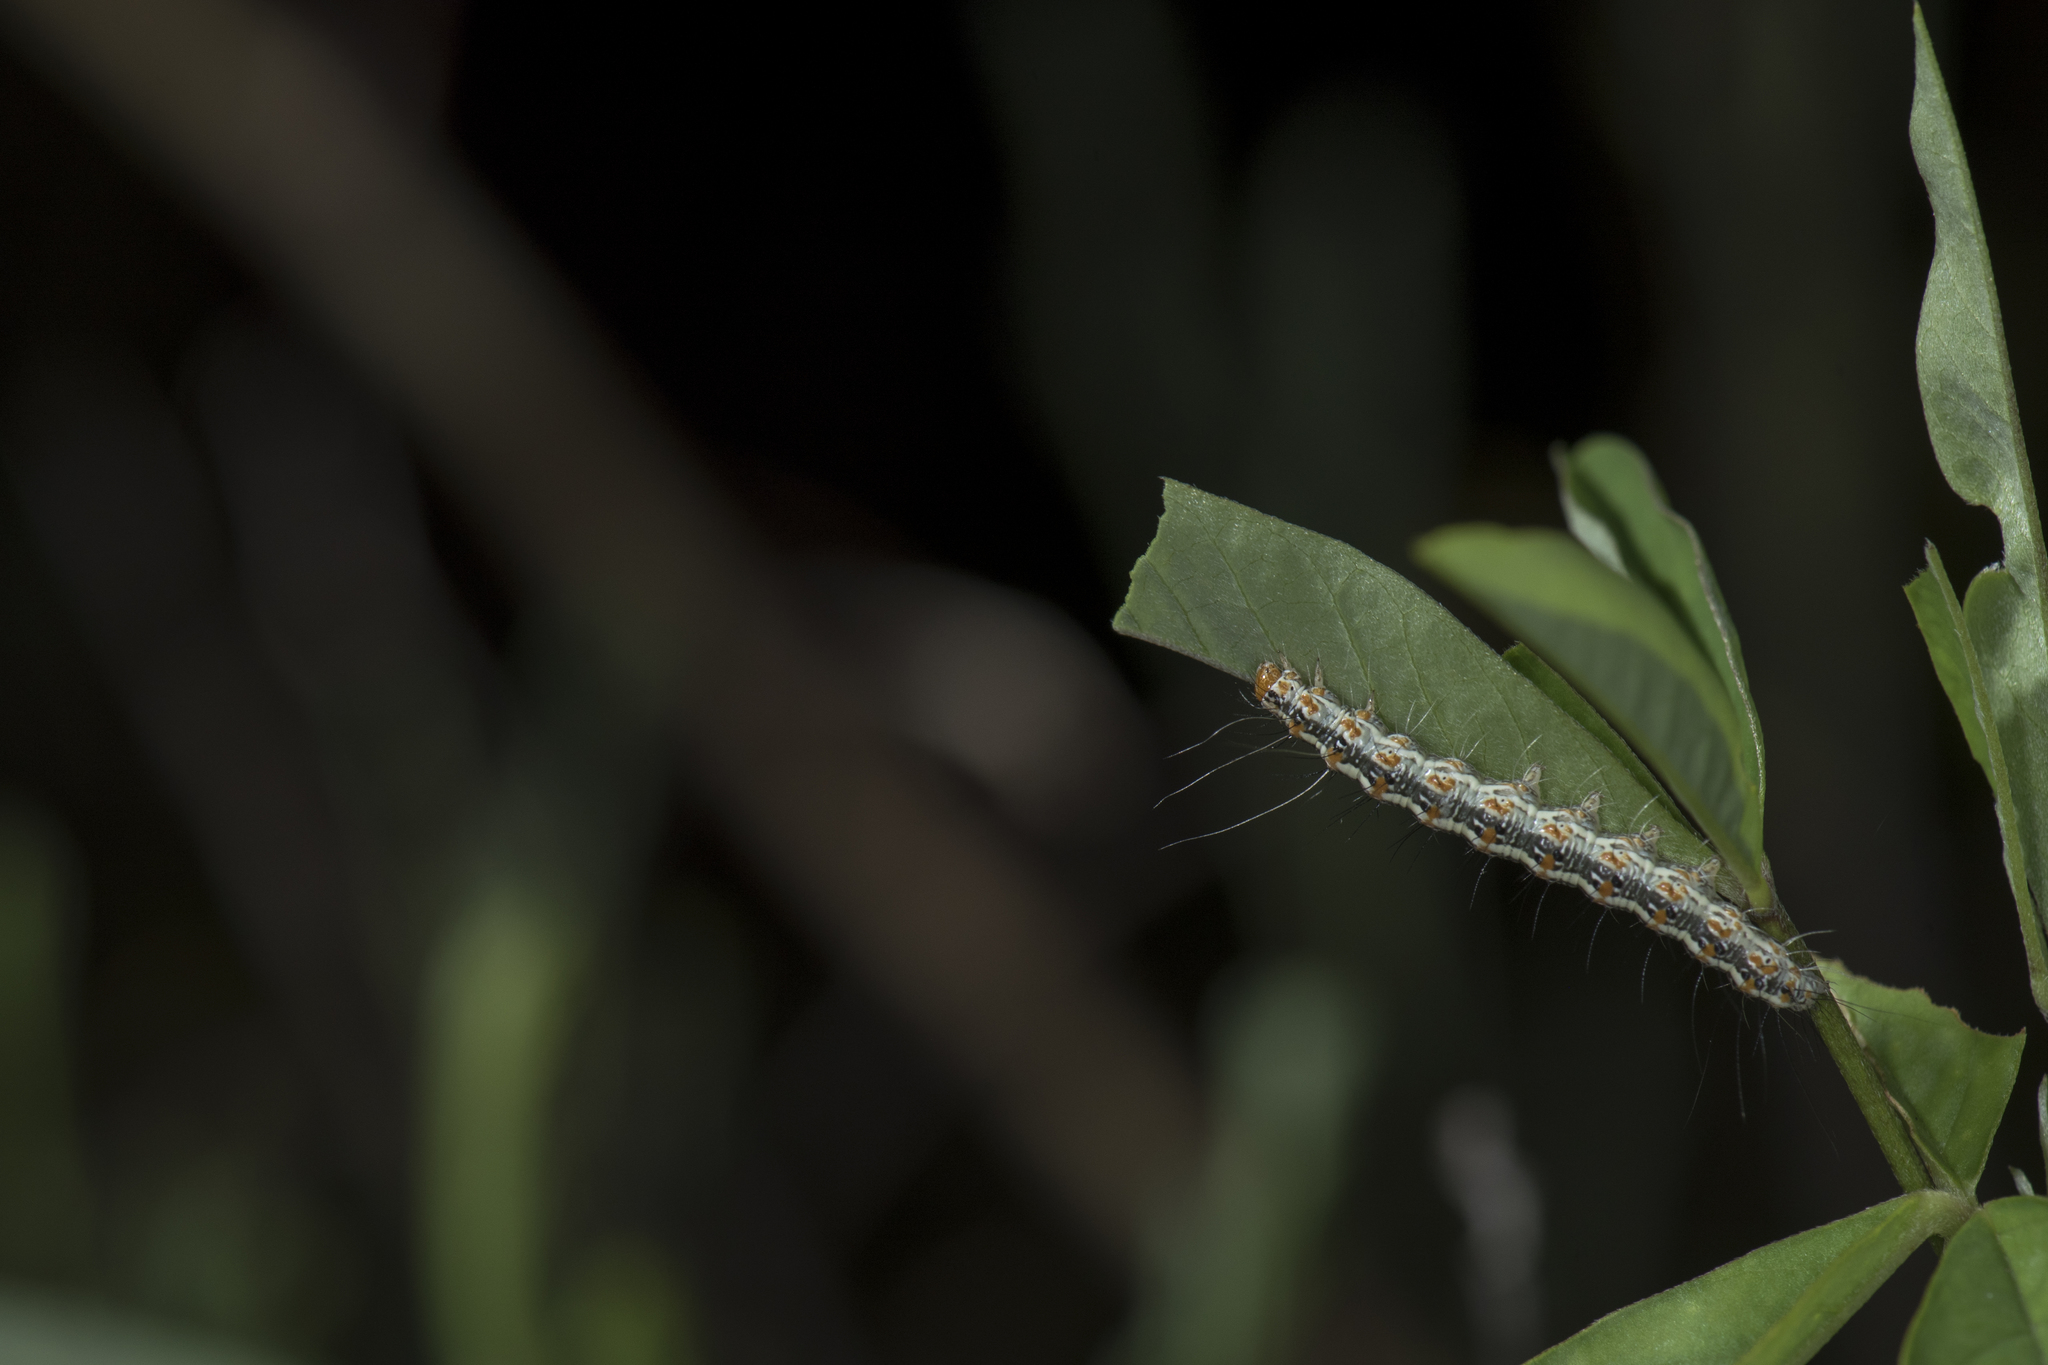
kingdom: Animalia
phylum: Arthropoda
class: Insecta
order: Lepidoptera
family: Erebidae
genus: Utetheisa
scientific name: Utetheisa lotrix
